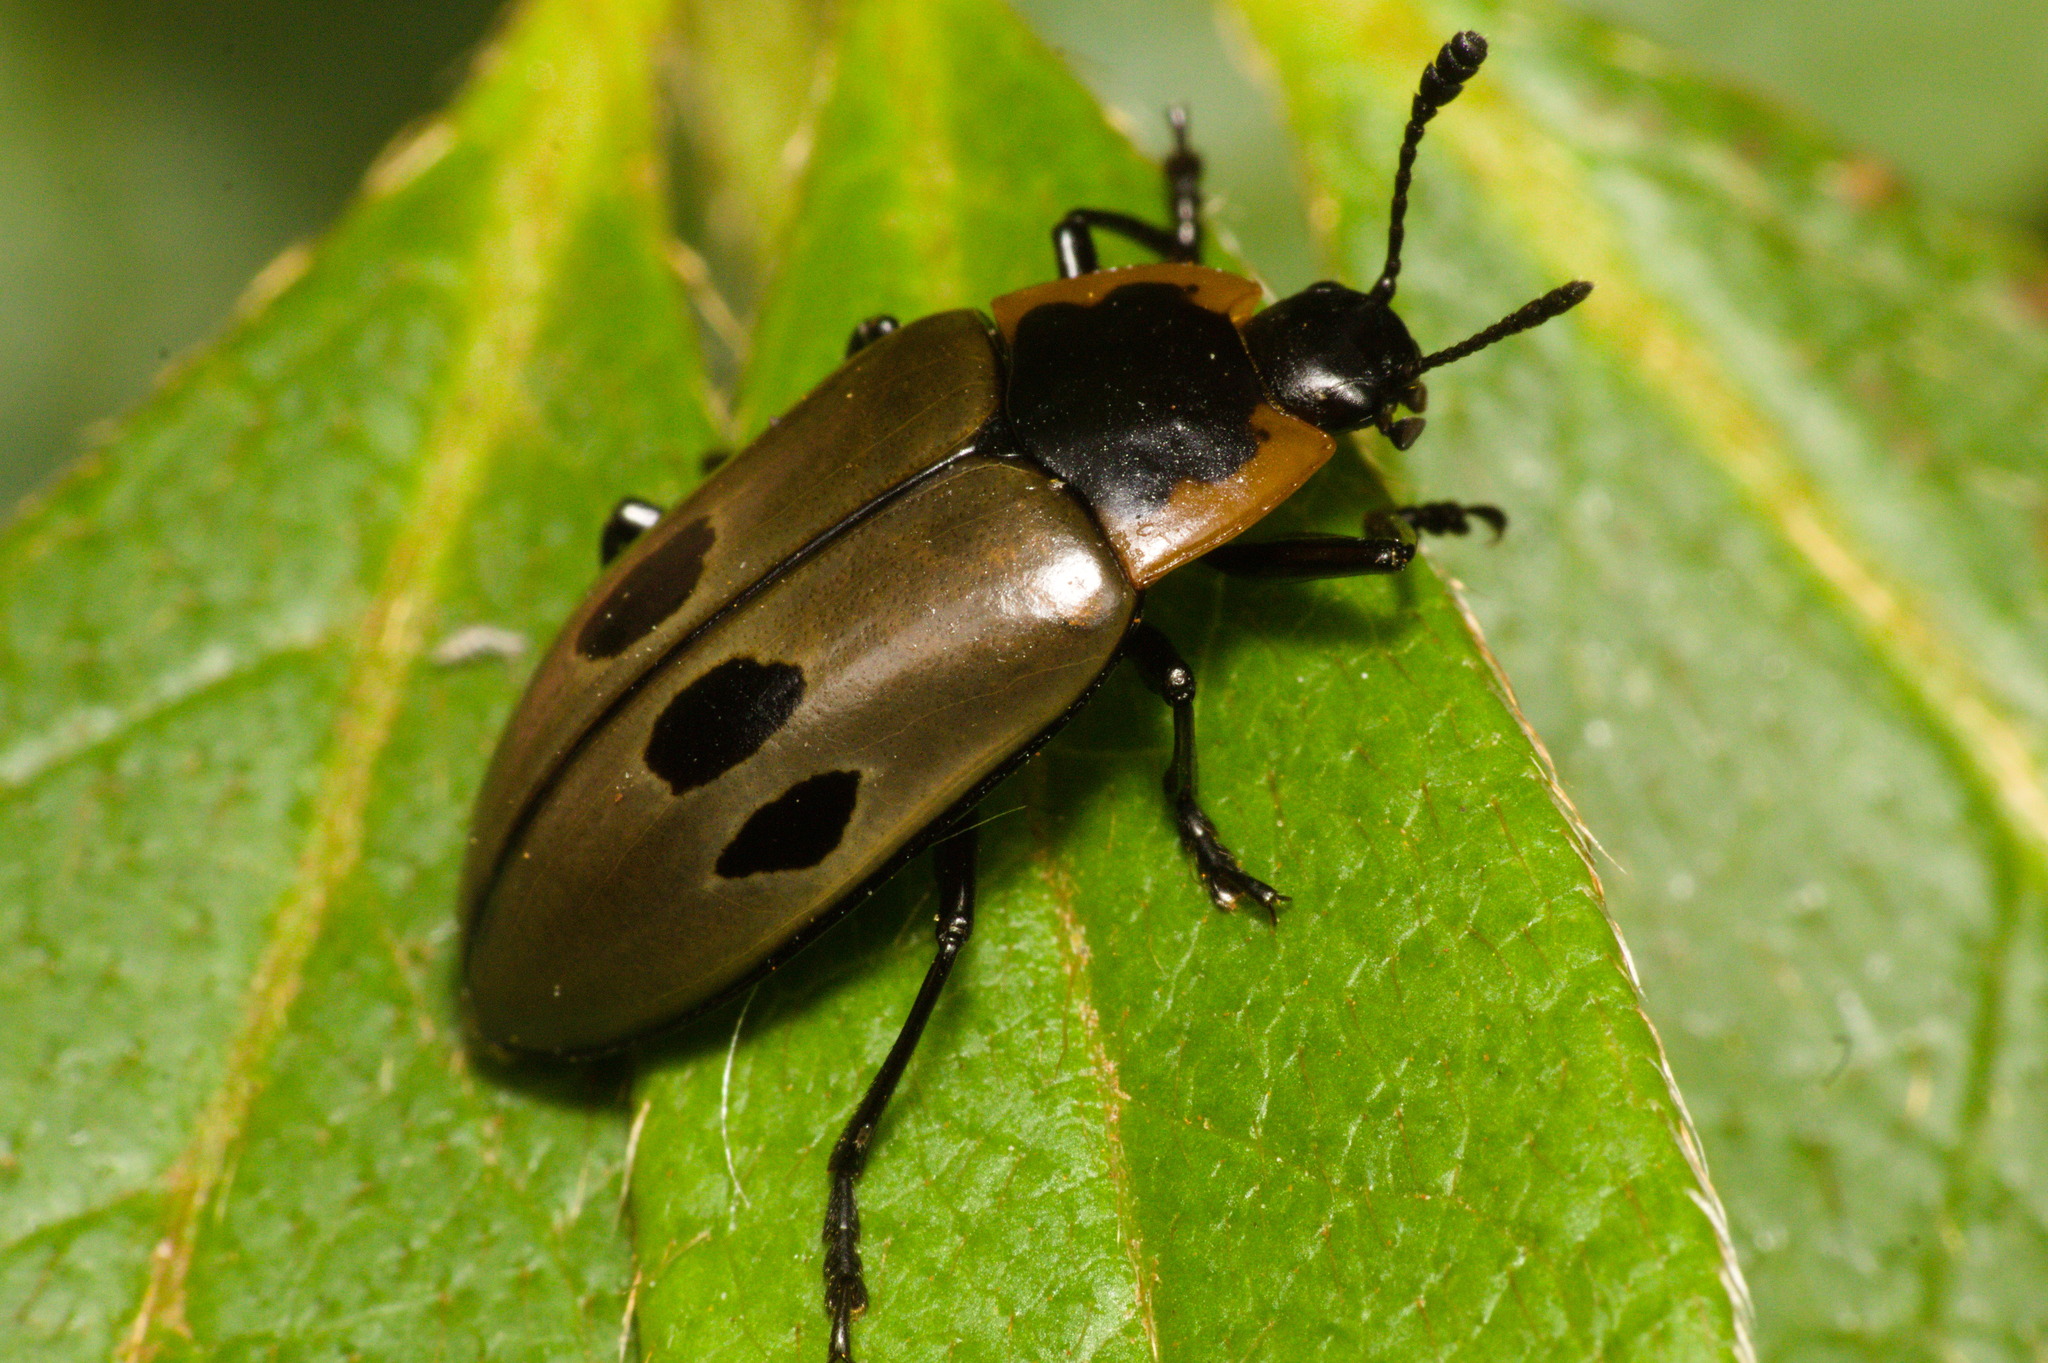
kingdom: Animalia
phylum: Arthropoda
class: Insecta
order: Coleoptera
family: Erotylidae
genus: Iphiclus
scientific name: Iphiclus
